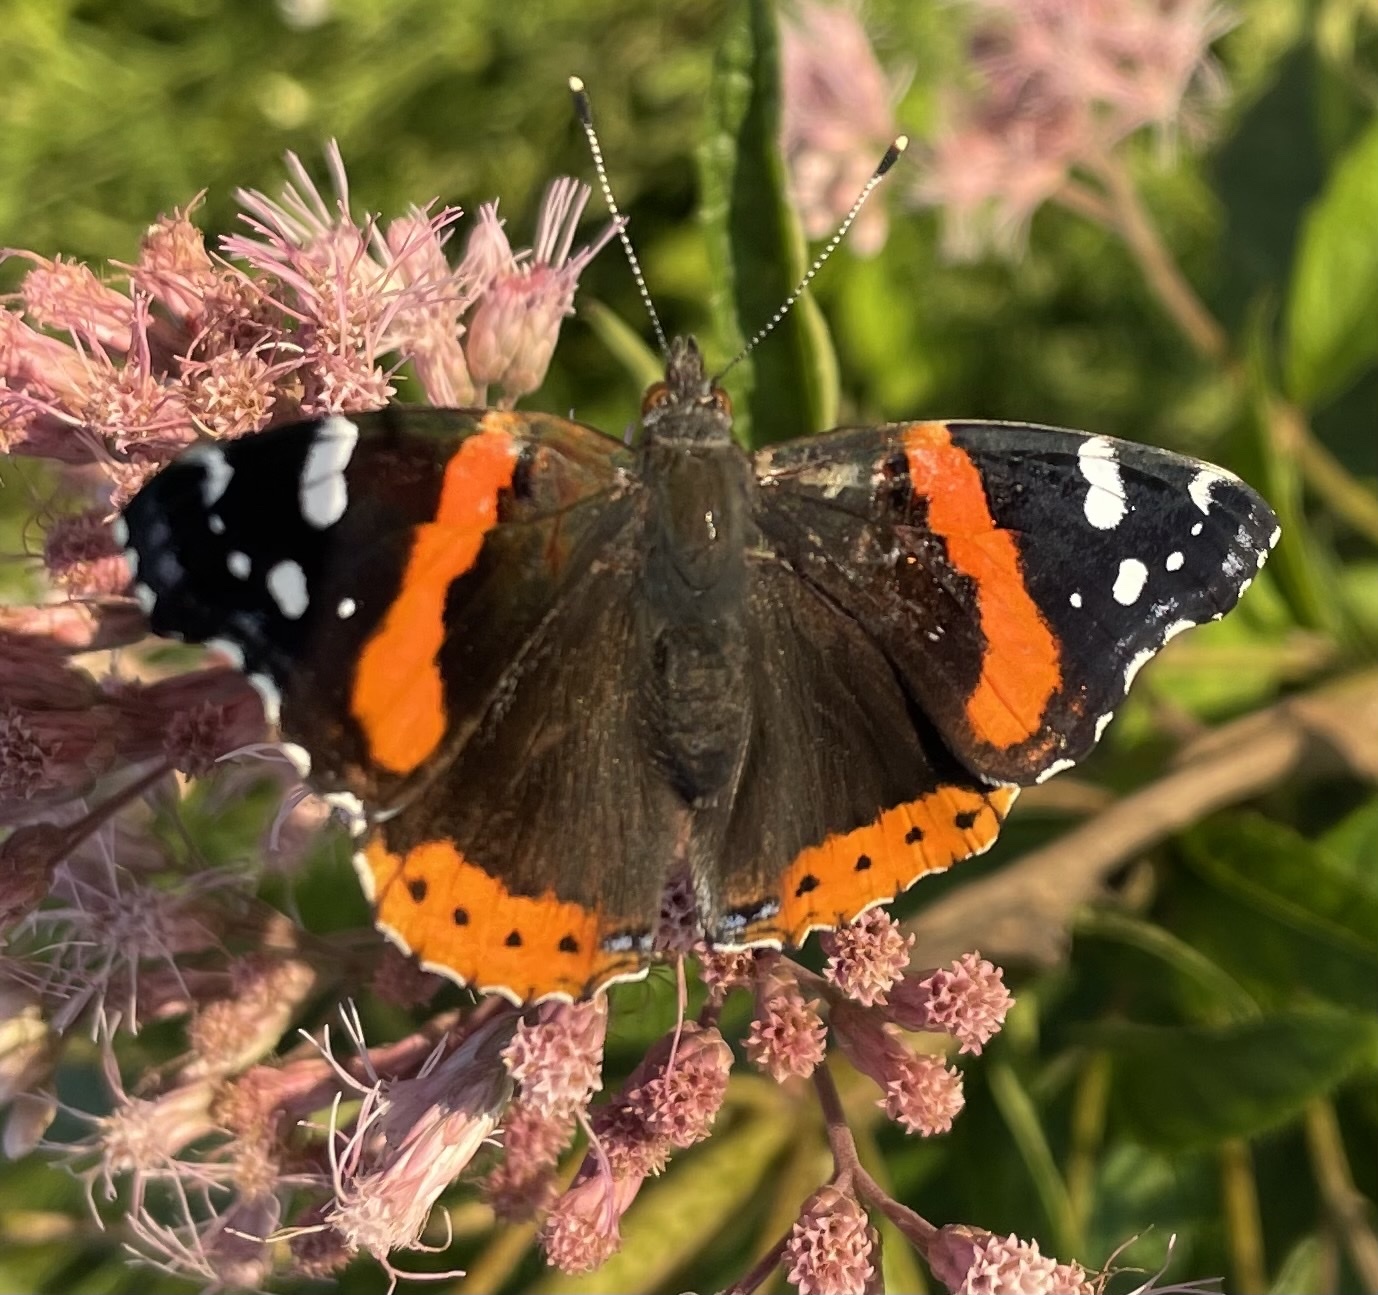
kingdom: Animalia
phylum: Arthropoda
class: Insecta
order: Lepidoptera
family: Nymphalidae
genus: Vanessa
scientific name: Vanessa atalanta
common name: Red admiral
